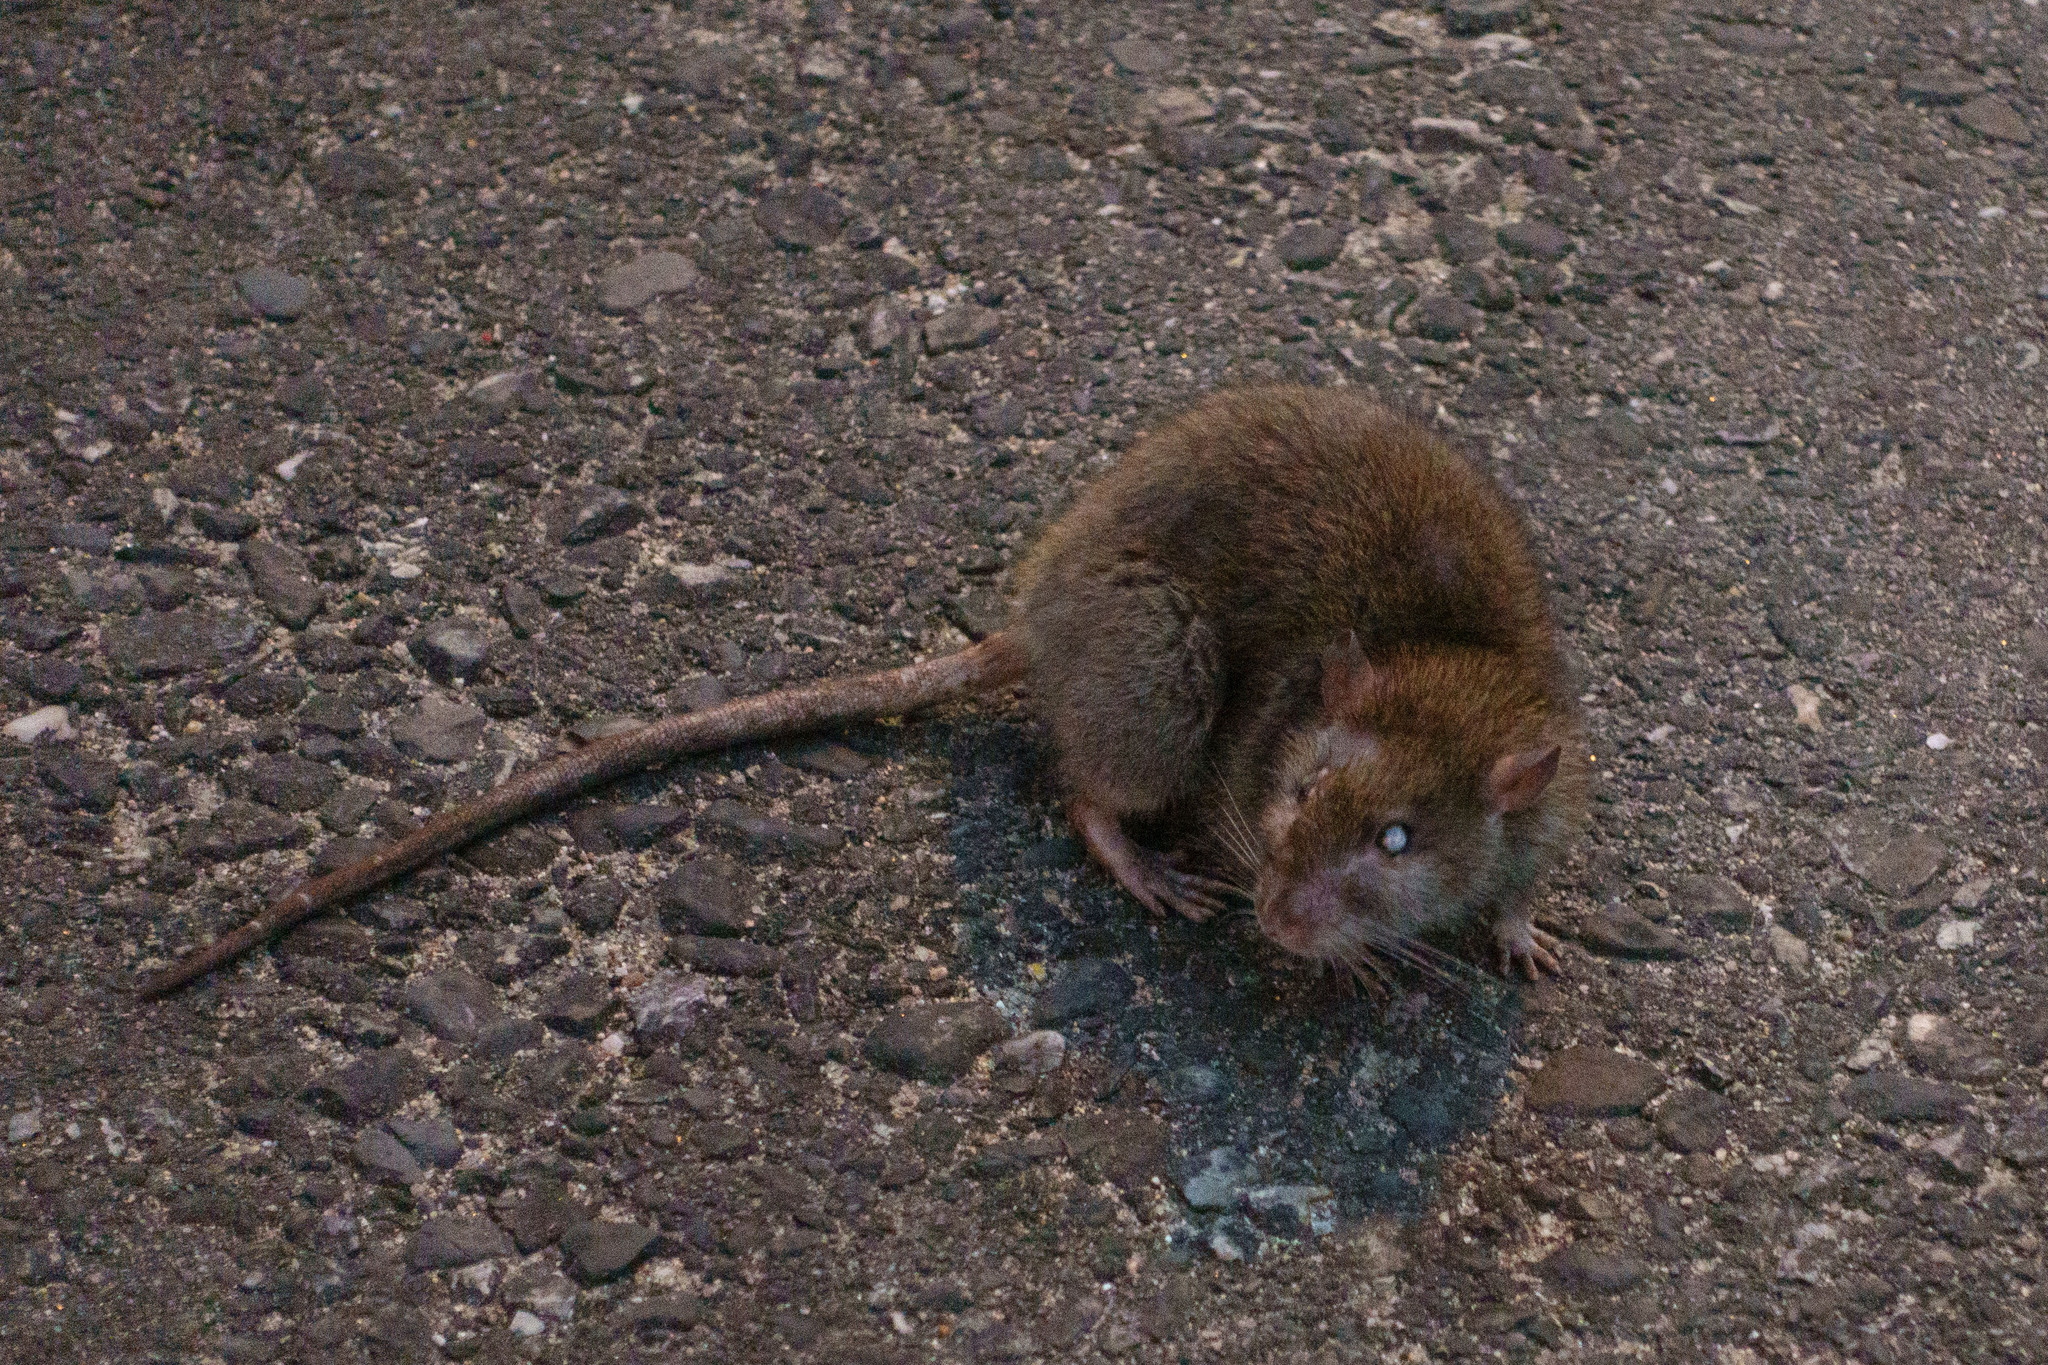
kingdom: Animalia
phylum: Chordata
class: Mammalia
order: Rodentia
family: Muridae
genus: Rattus
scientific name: Rattus norvegicus
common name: Brown rat
